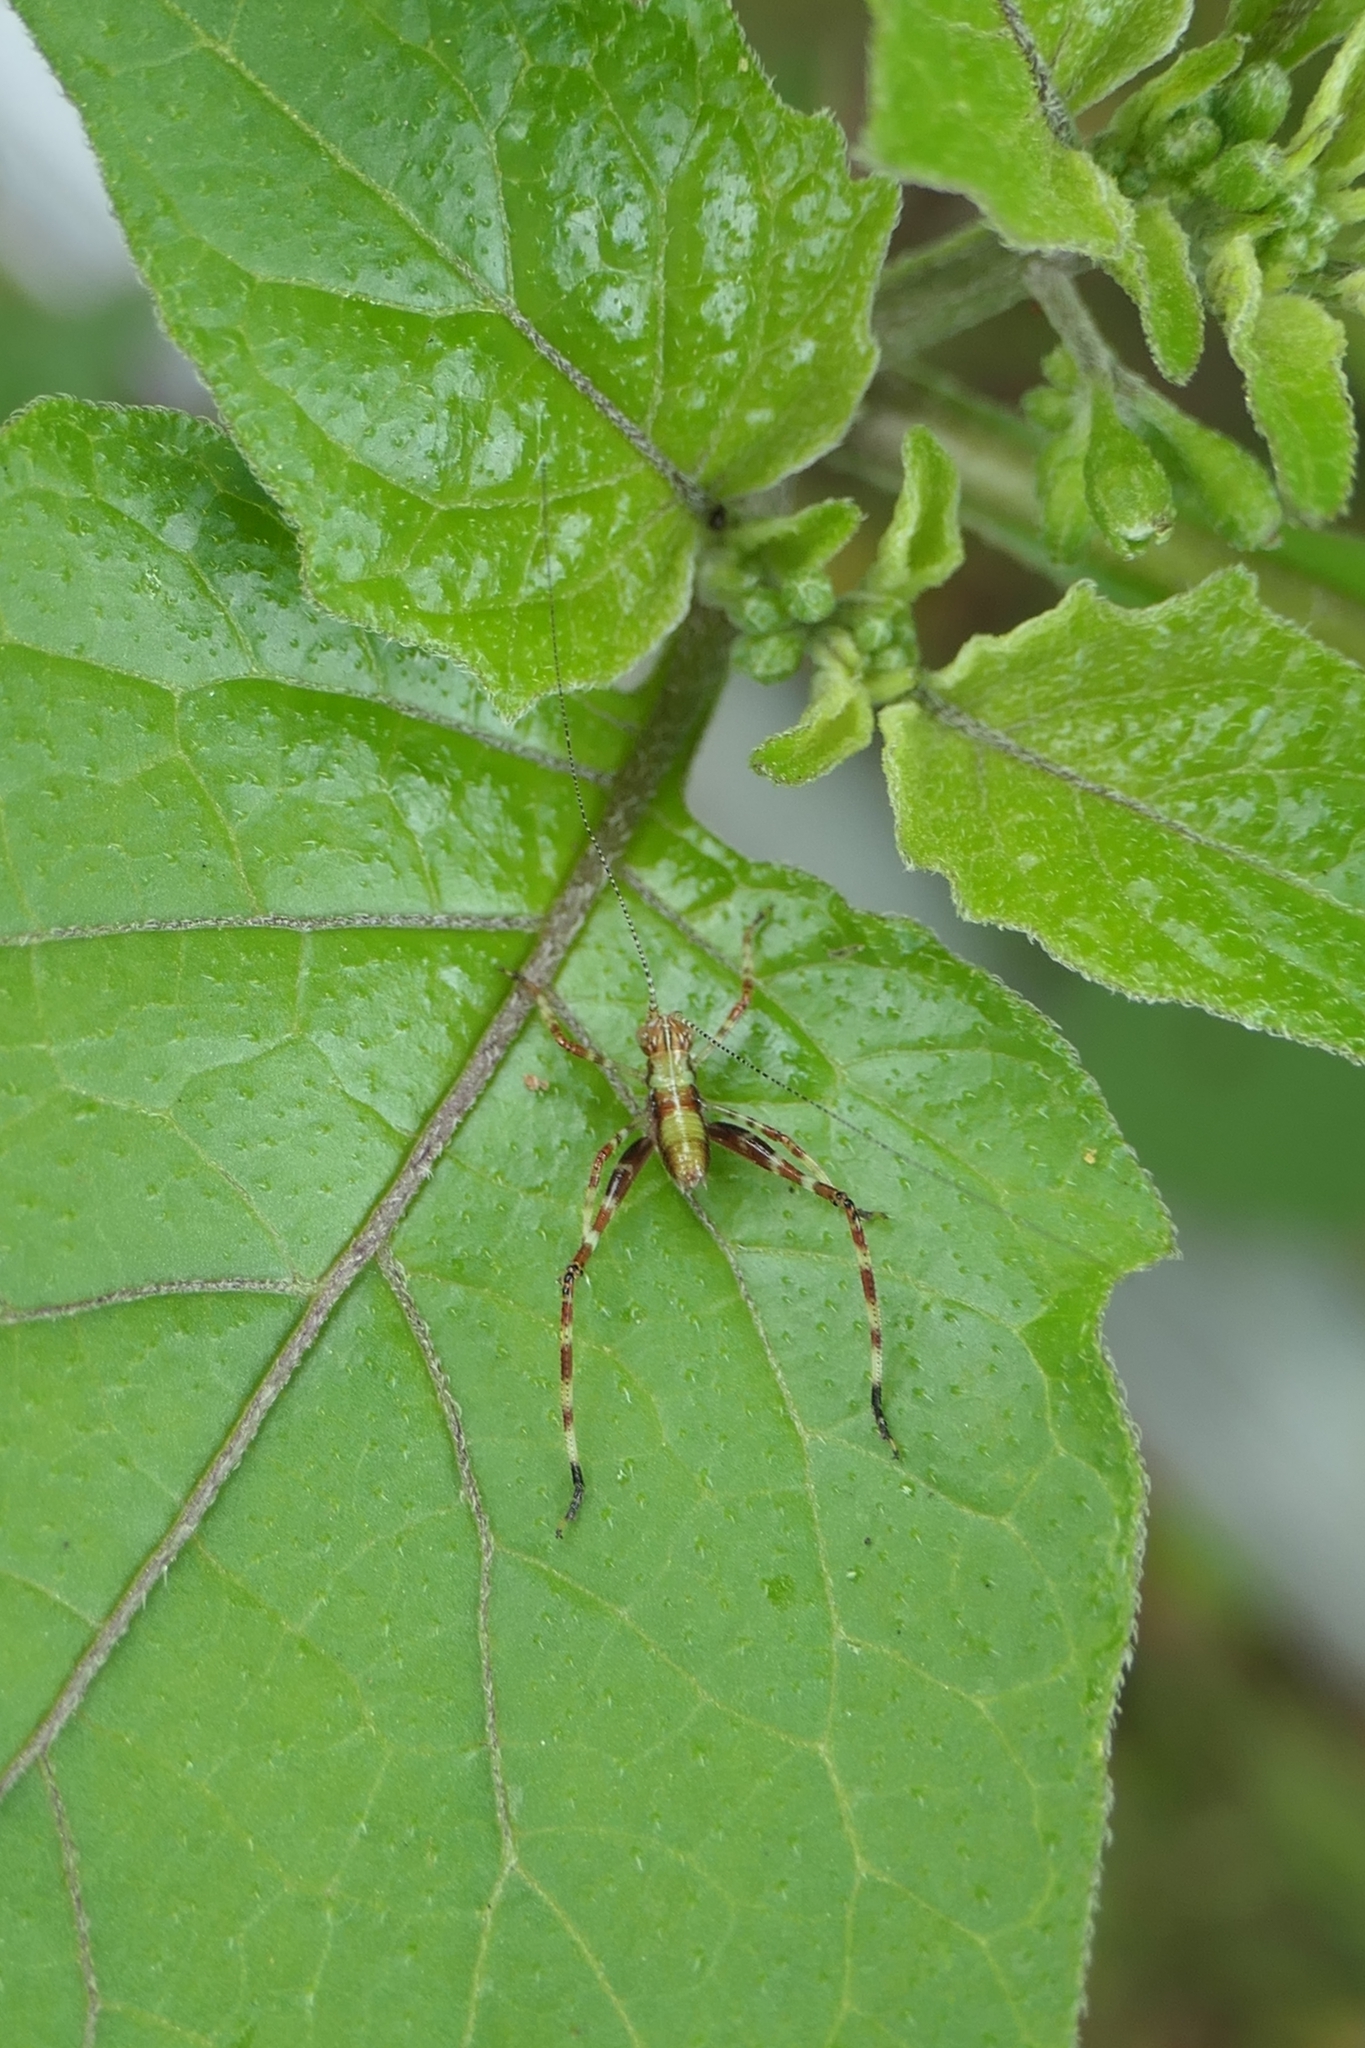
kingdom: Animalia
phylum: Arthropoda
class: Insecta
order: Orthoptera
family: Tettigoniidae
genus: Caedicia
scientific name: Caedicia simplex
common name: Common garden katydid
